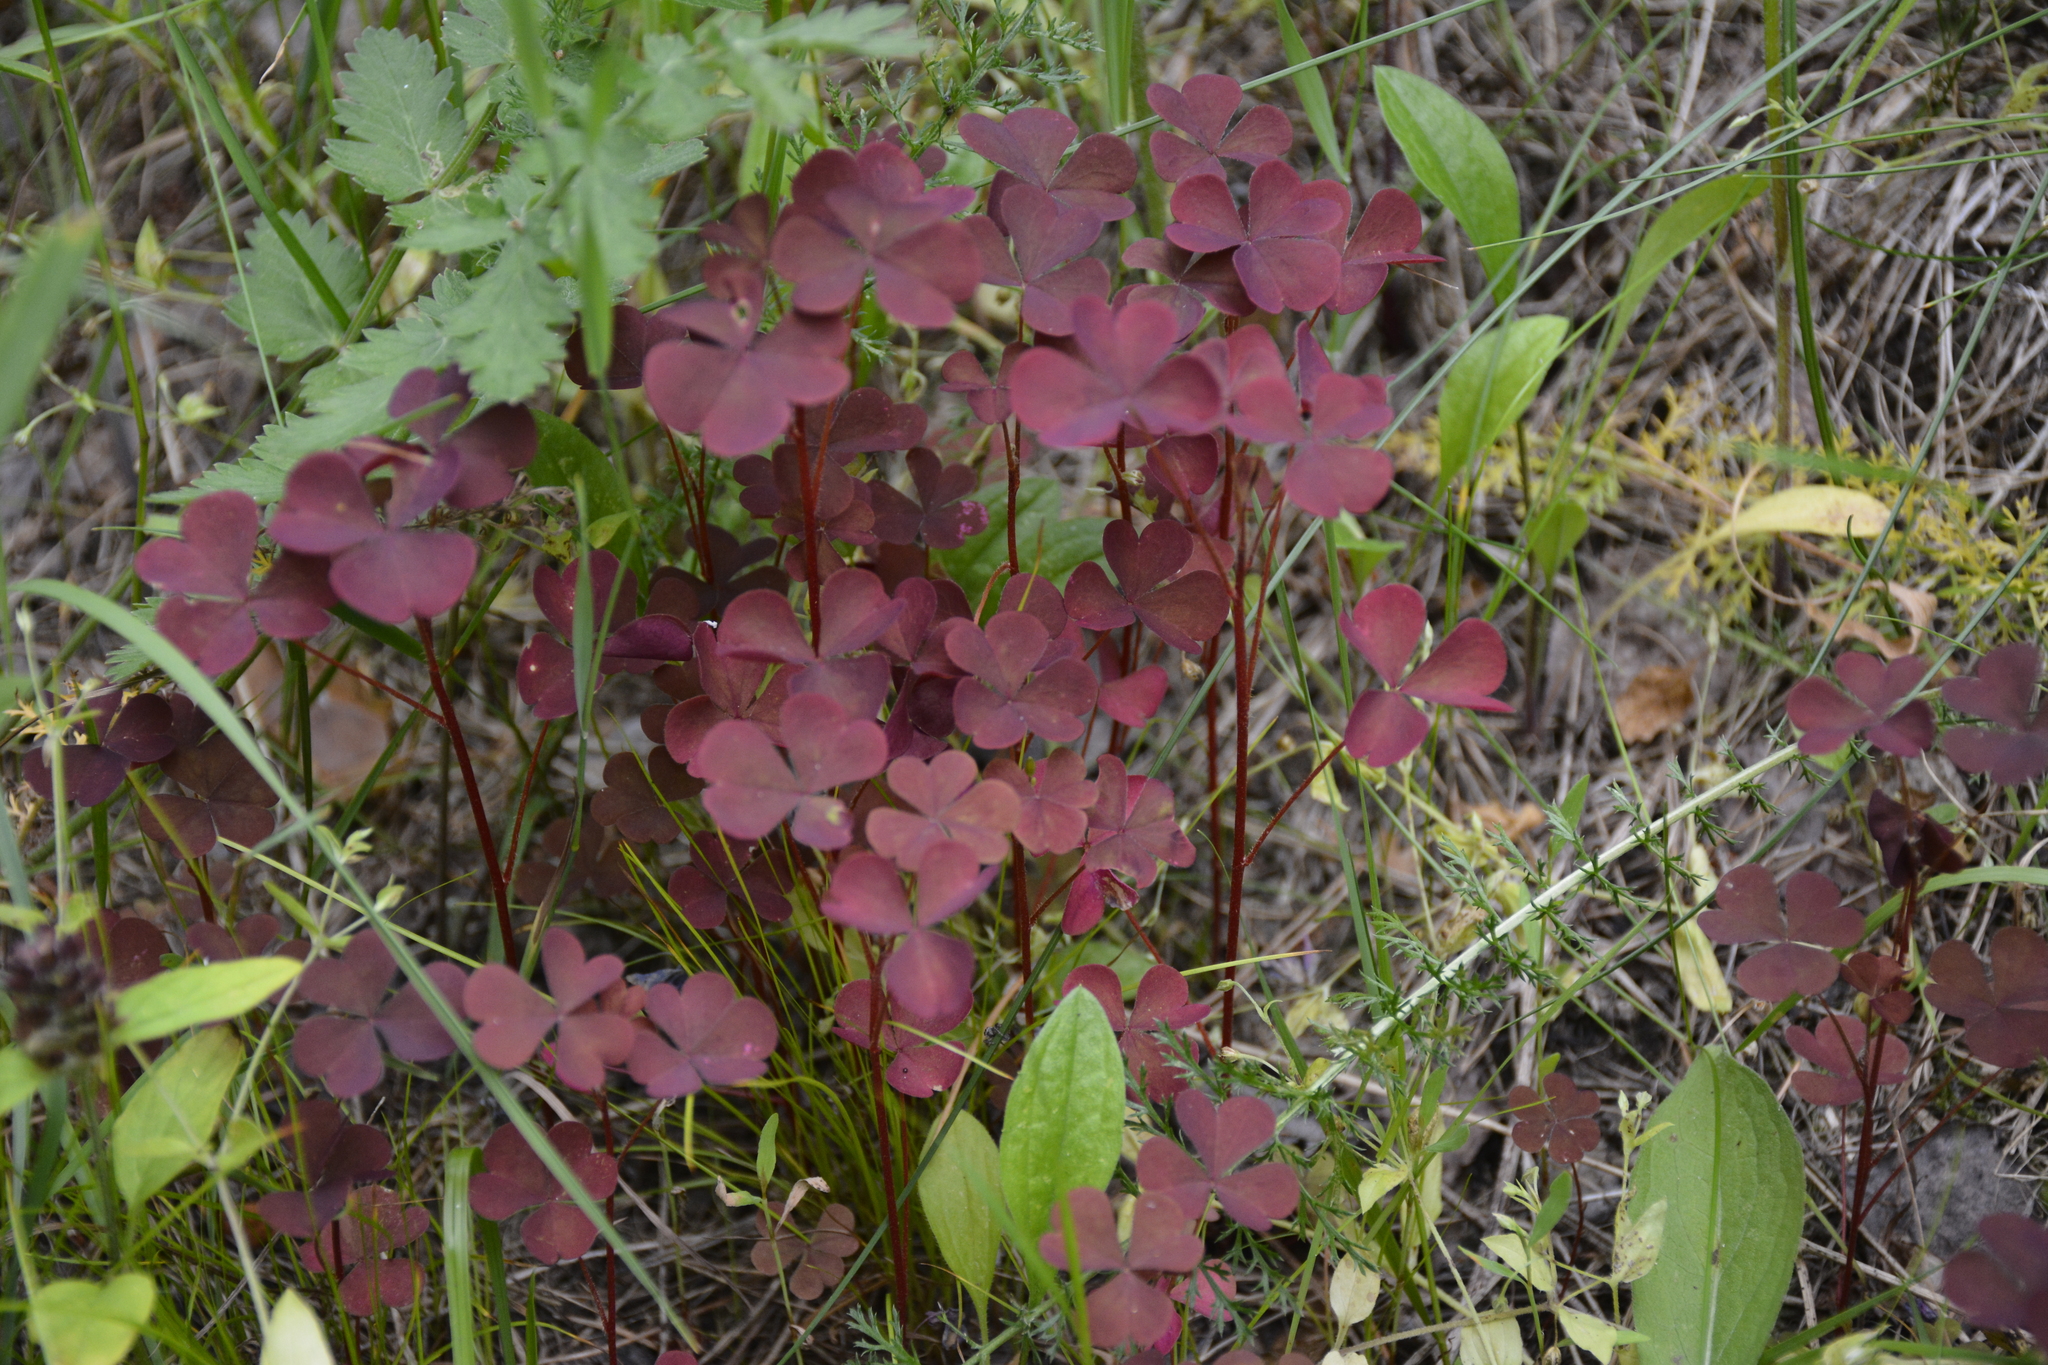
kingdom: Plantae
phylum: Tracheophyta
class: Magnoliopsida
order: Oxalidales
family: Oxalidaceae
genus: Oxalis
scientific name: Oxalis stricta
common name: Upright yellow-sorrel
